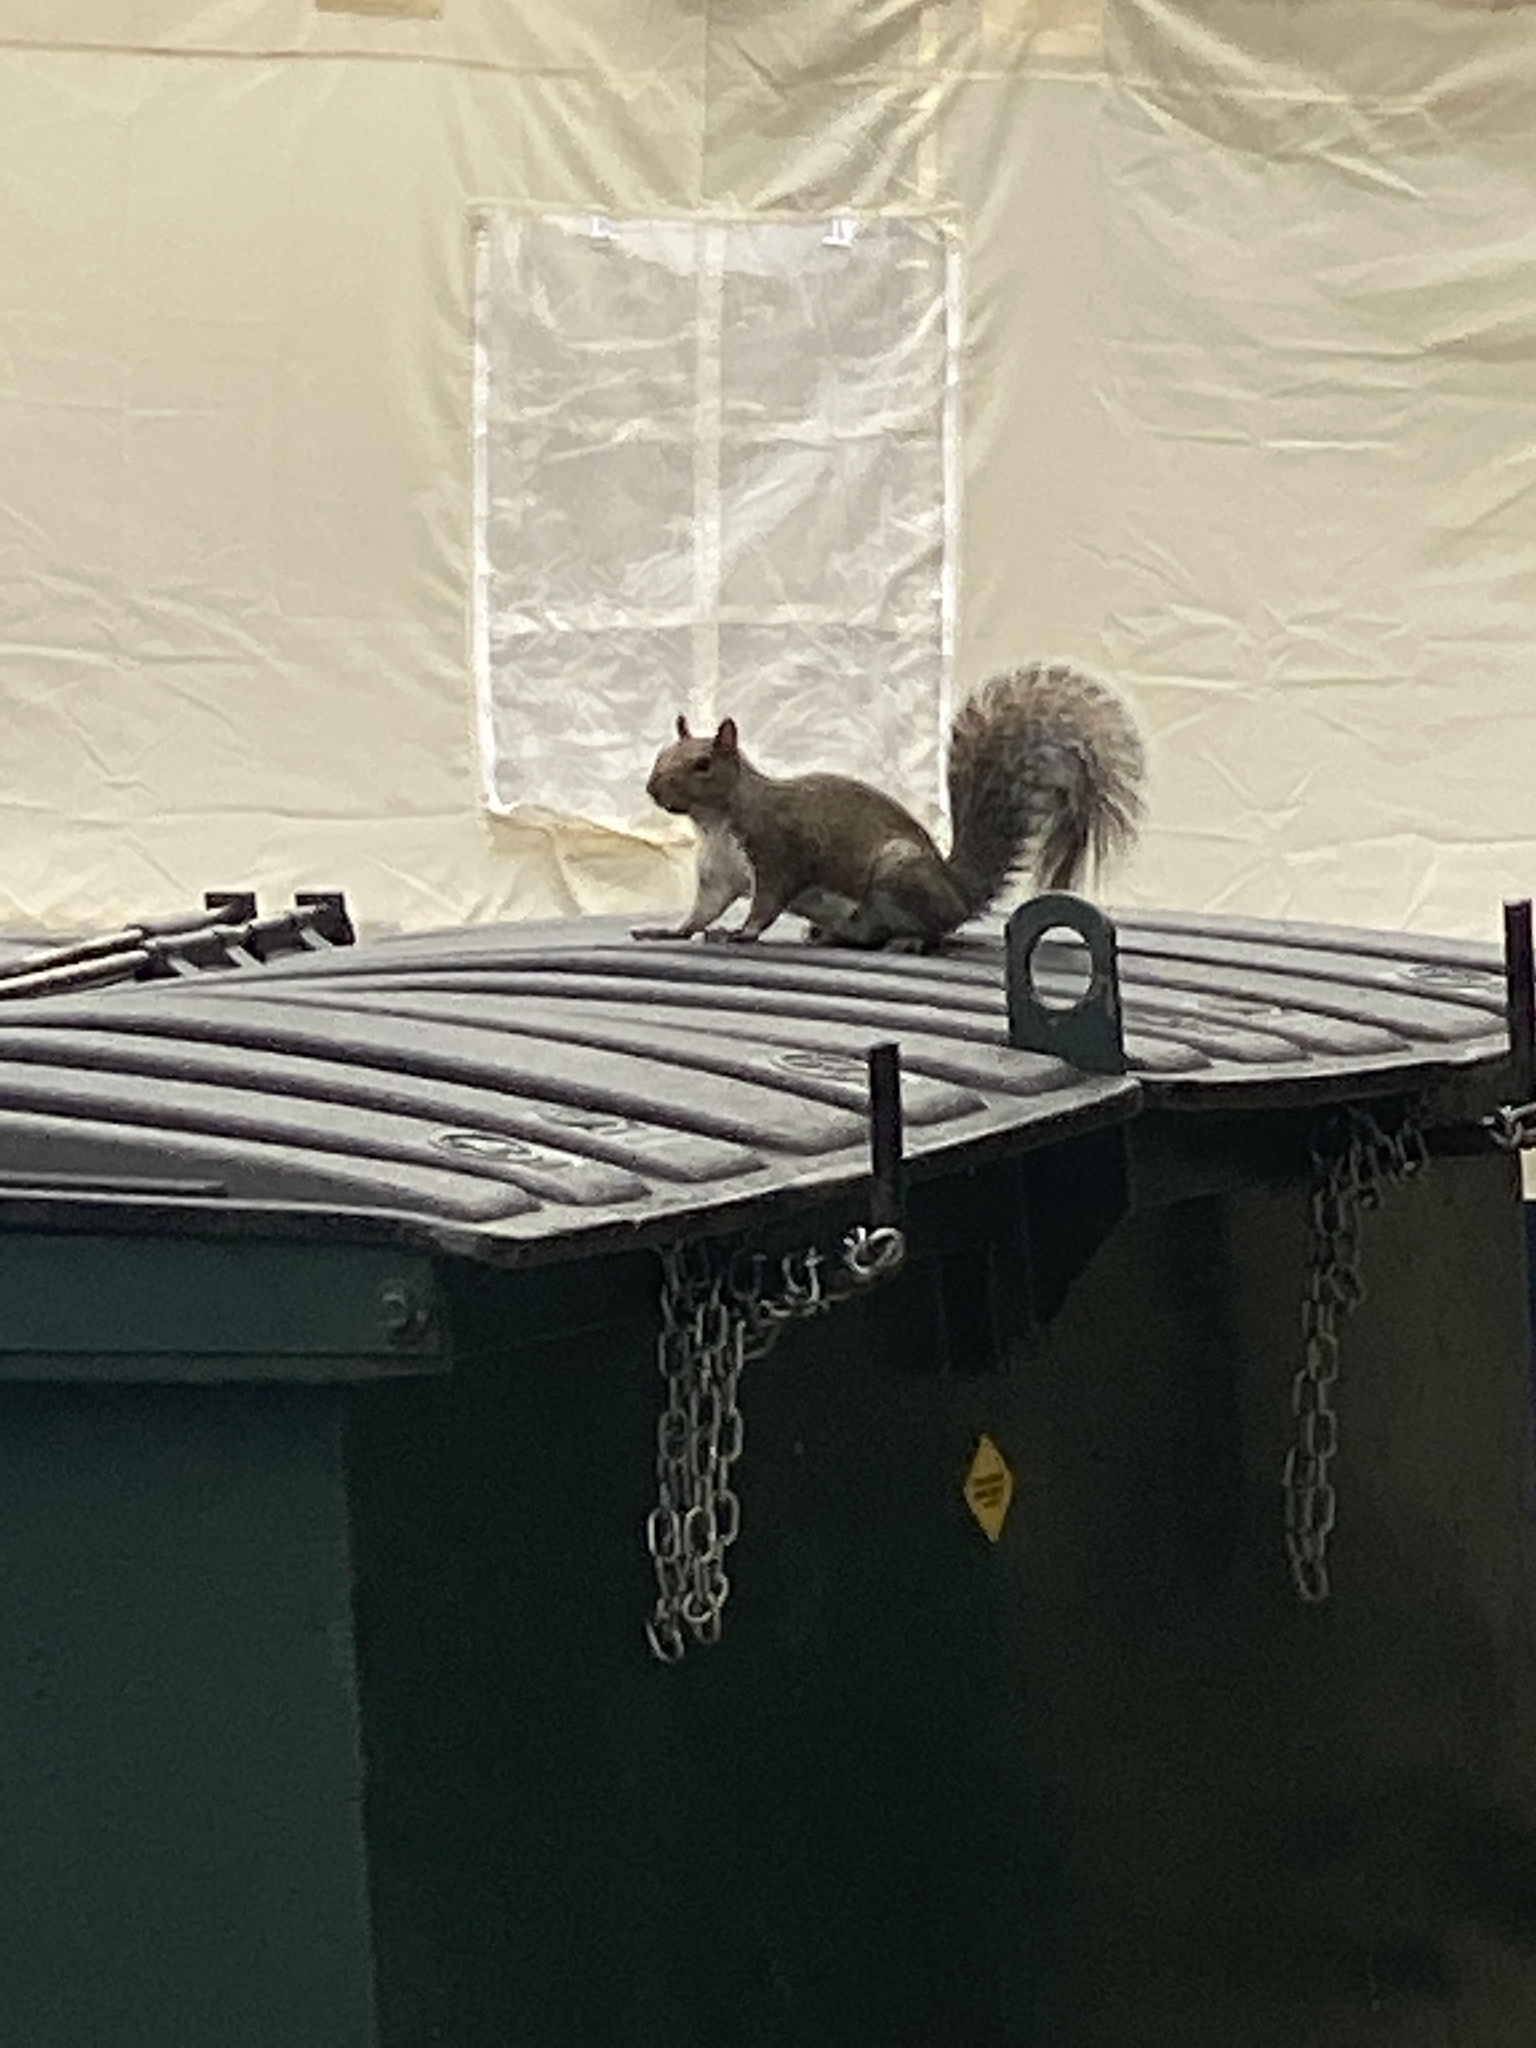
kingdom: Animalia
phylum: Chordata
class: Mammalia
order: Rodentia
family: Sciuridae
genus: Sciurus
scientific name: Sciurus carolinensis
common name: Eastern gray squirrel
